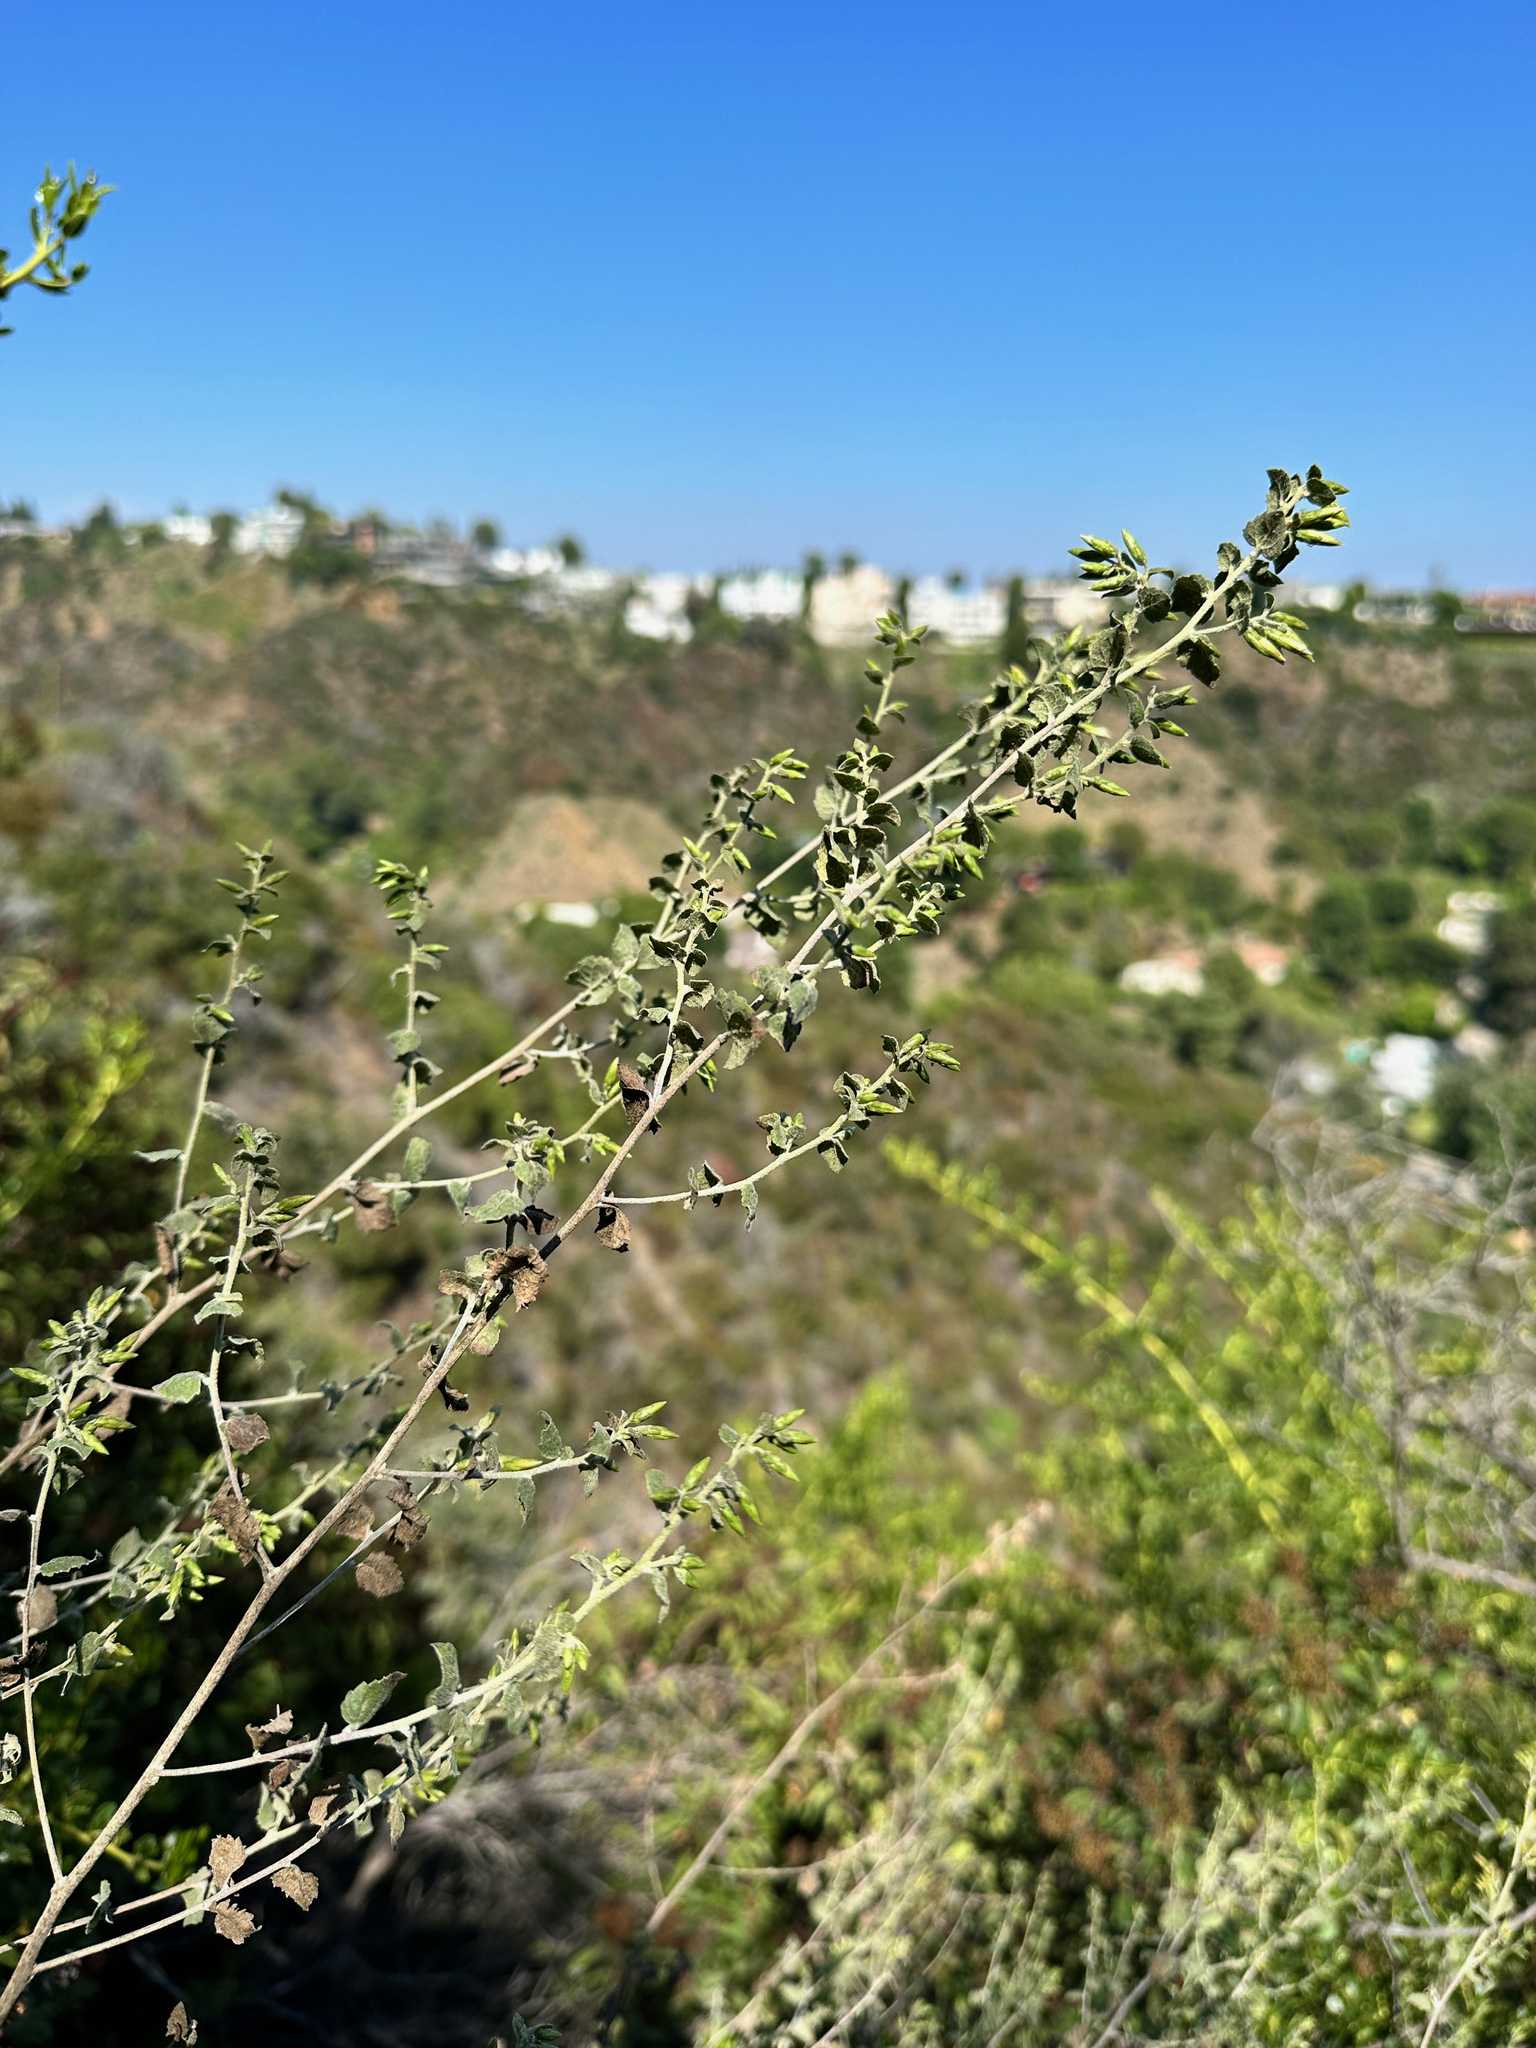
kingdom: Plantae
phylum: Tracheophyta
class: Magnoliopsida
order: Asterales
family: Asteraceae
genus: Brickellia
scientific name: Brickellia californica
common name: California brickellbush
